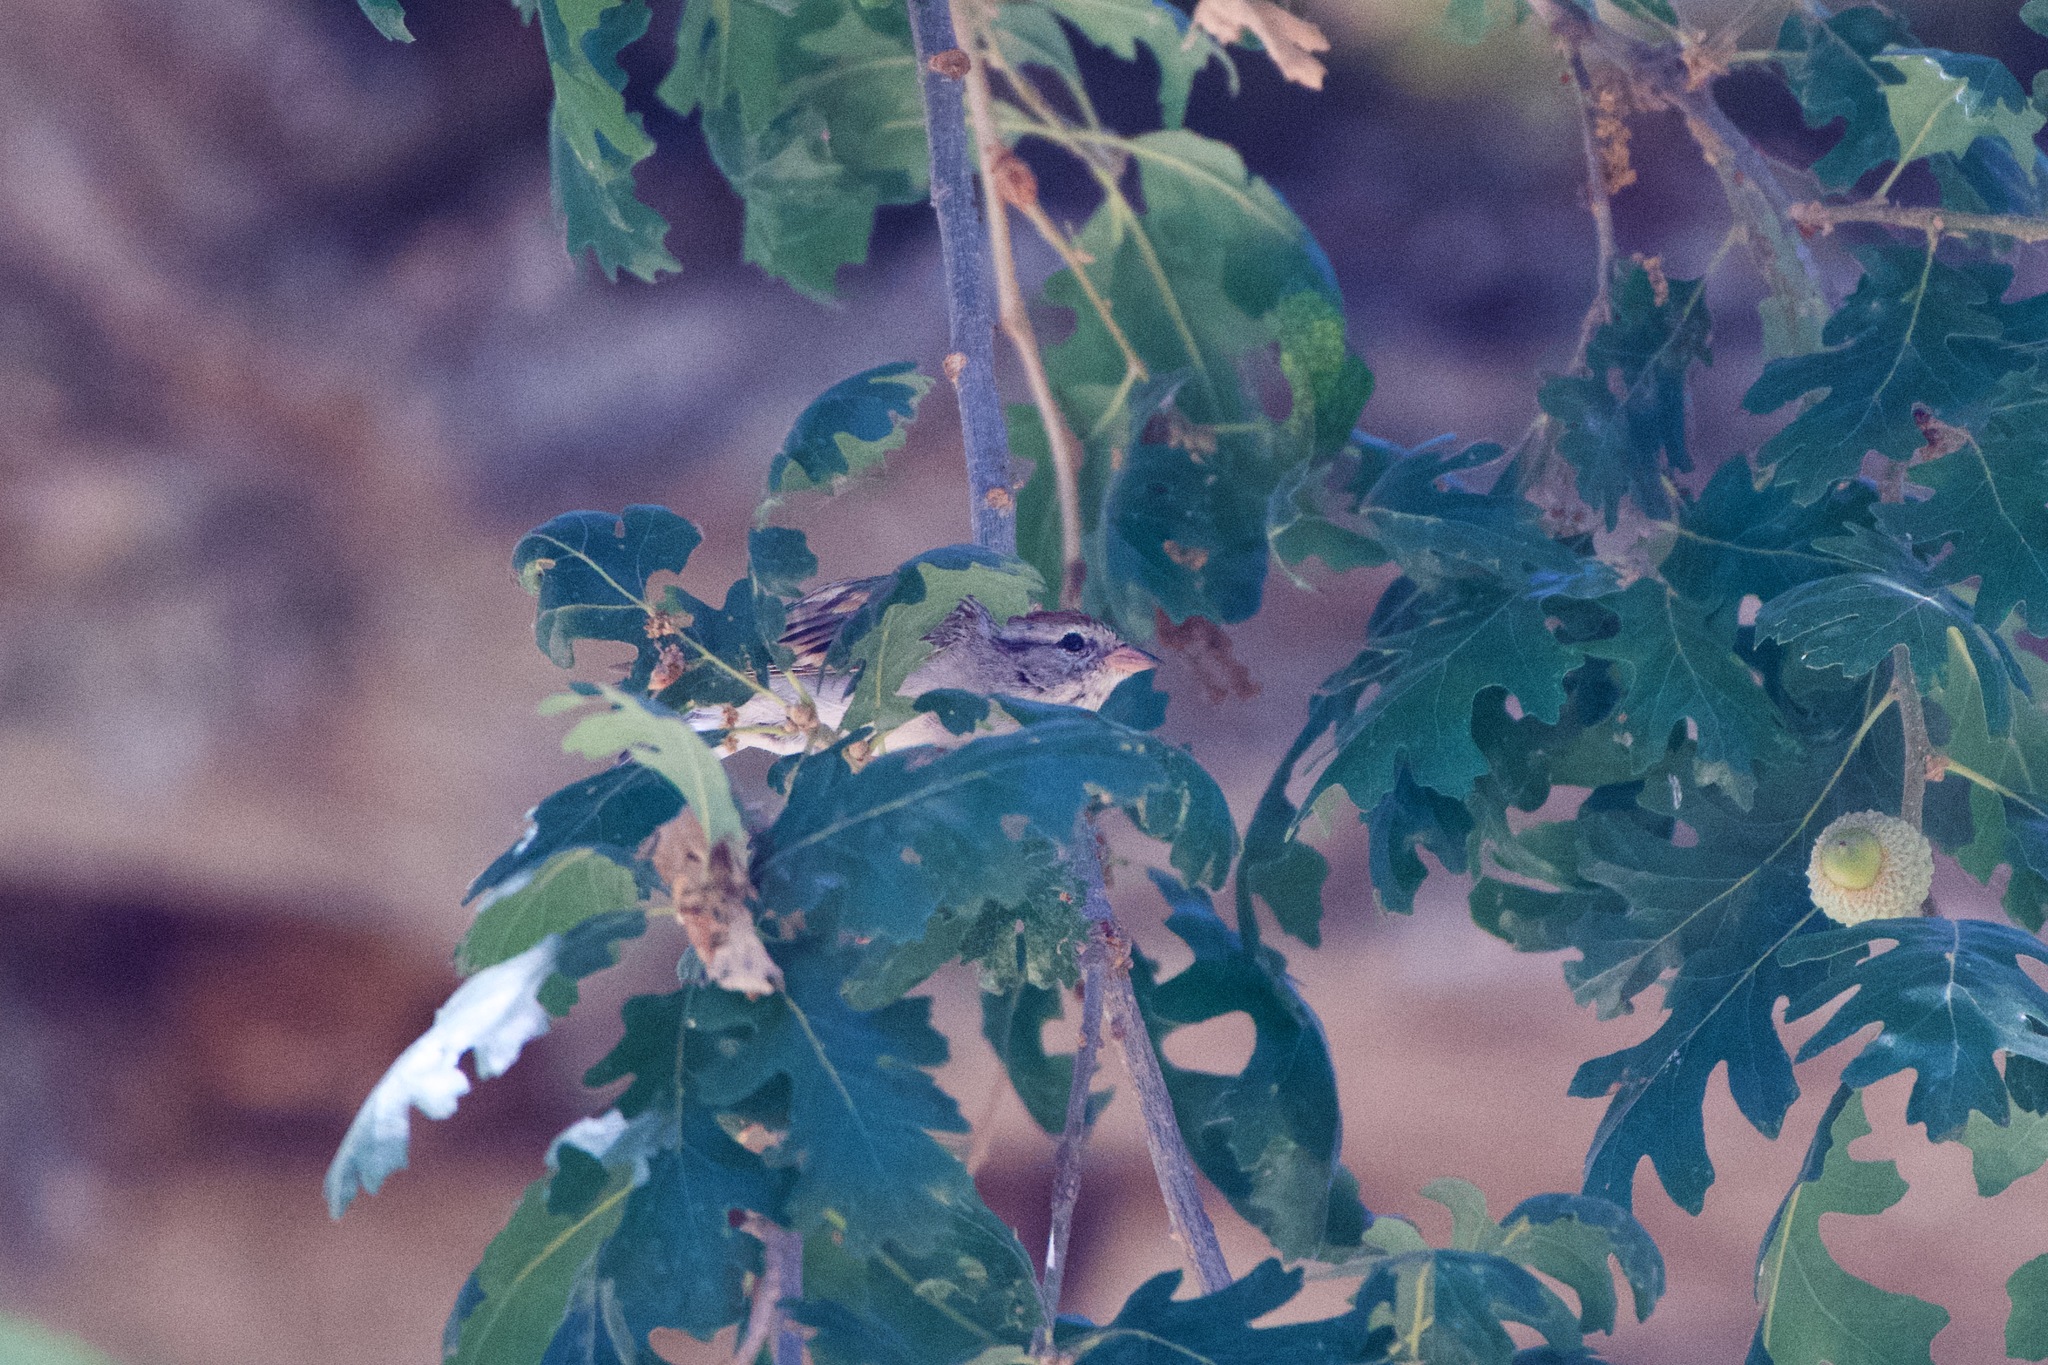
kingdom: Animalia
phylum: Chordata
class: Aves
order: Passeriformes
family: Passerellidae
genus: Spizella
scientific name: Spizella passerina
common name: Chipping sparrow
